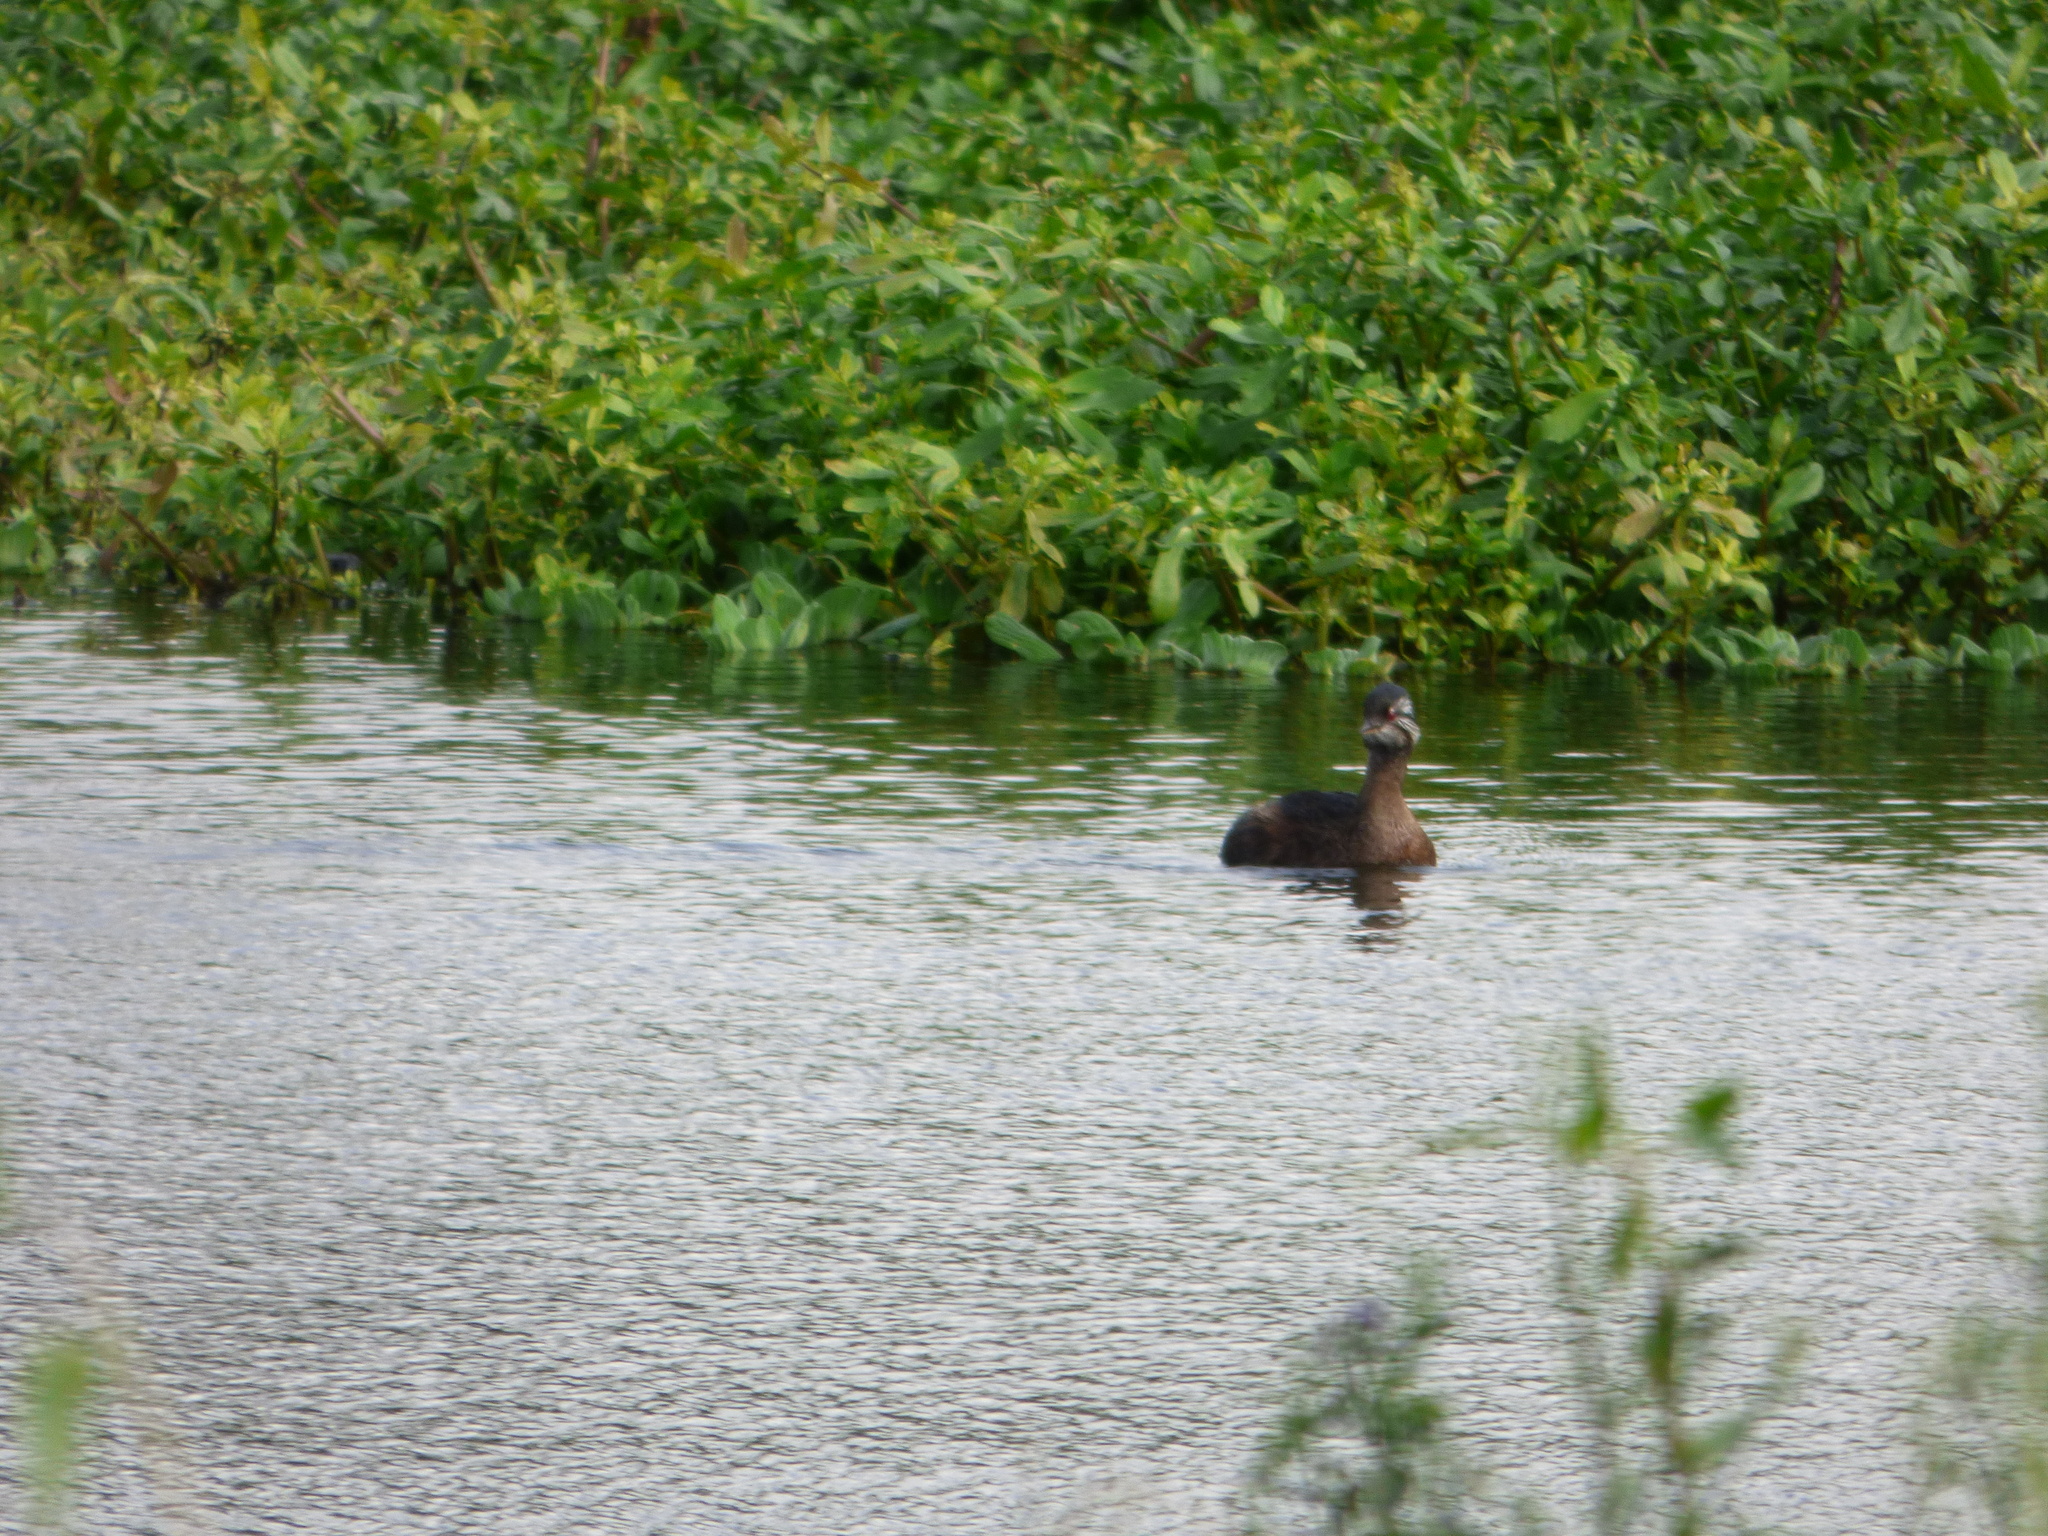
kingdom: Animalia
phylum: Chordata
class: Aves
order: Podicipediformes
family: Podicipedidae
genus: Rollandia
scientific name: Rollandia rolland
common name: White-tufted grebe
